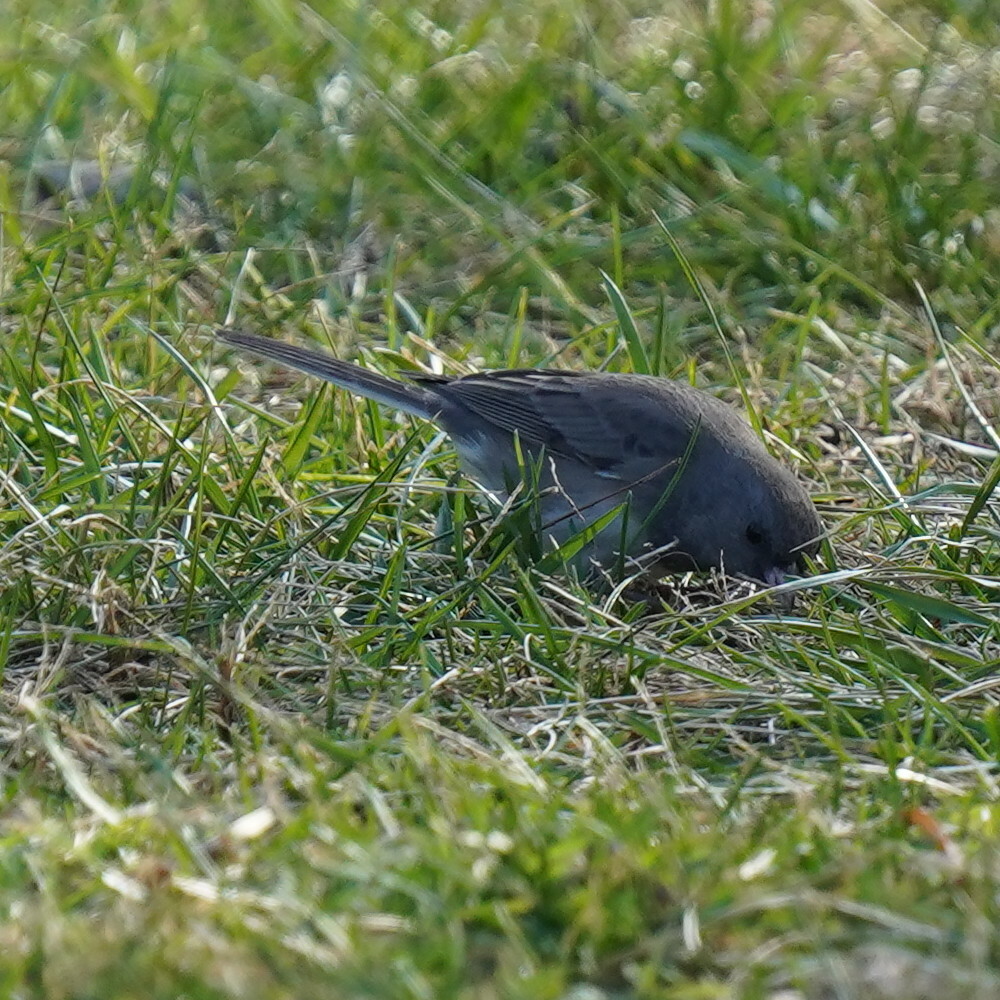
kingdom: Animalia
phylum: Chordata
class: Aves
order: Passeriformes
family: Passerellidae
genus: Junco
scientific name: Junco hyemalis
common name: Dark-eyed junco
